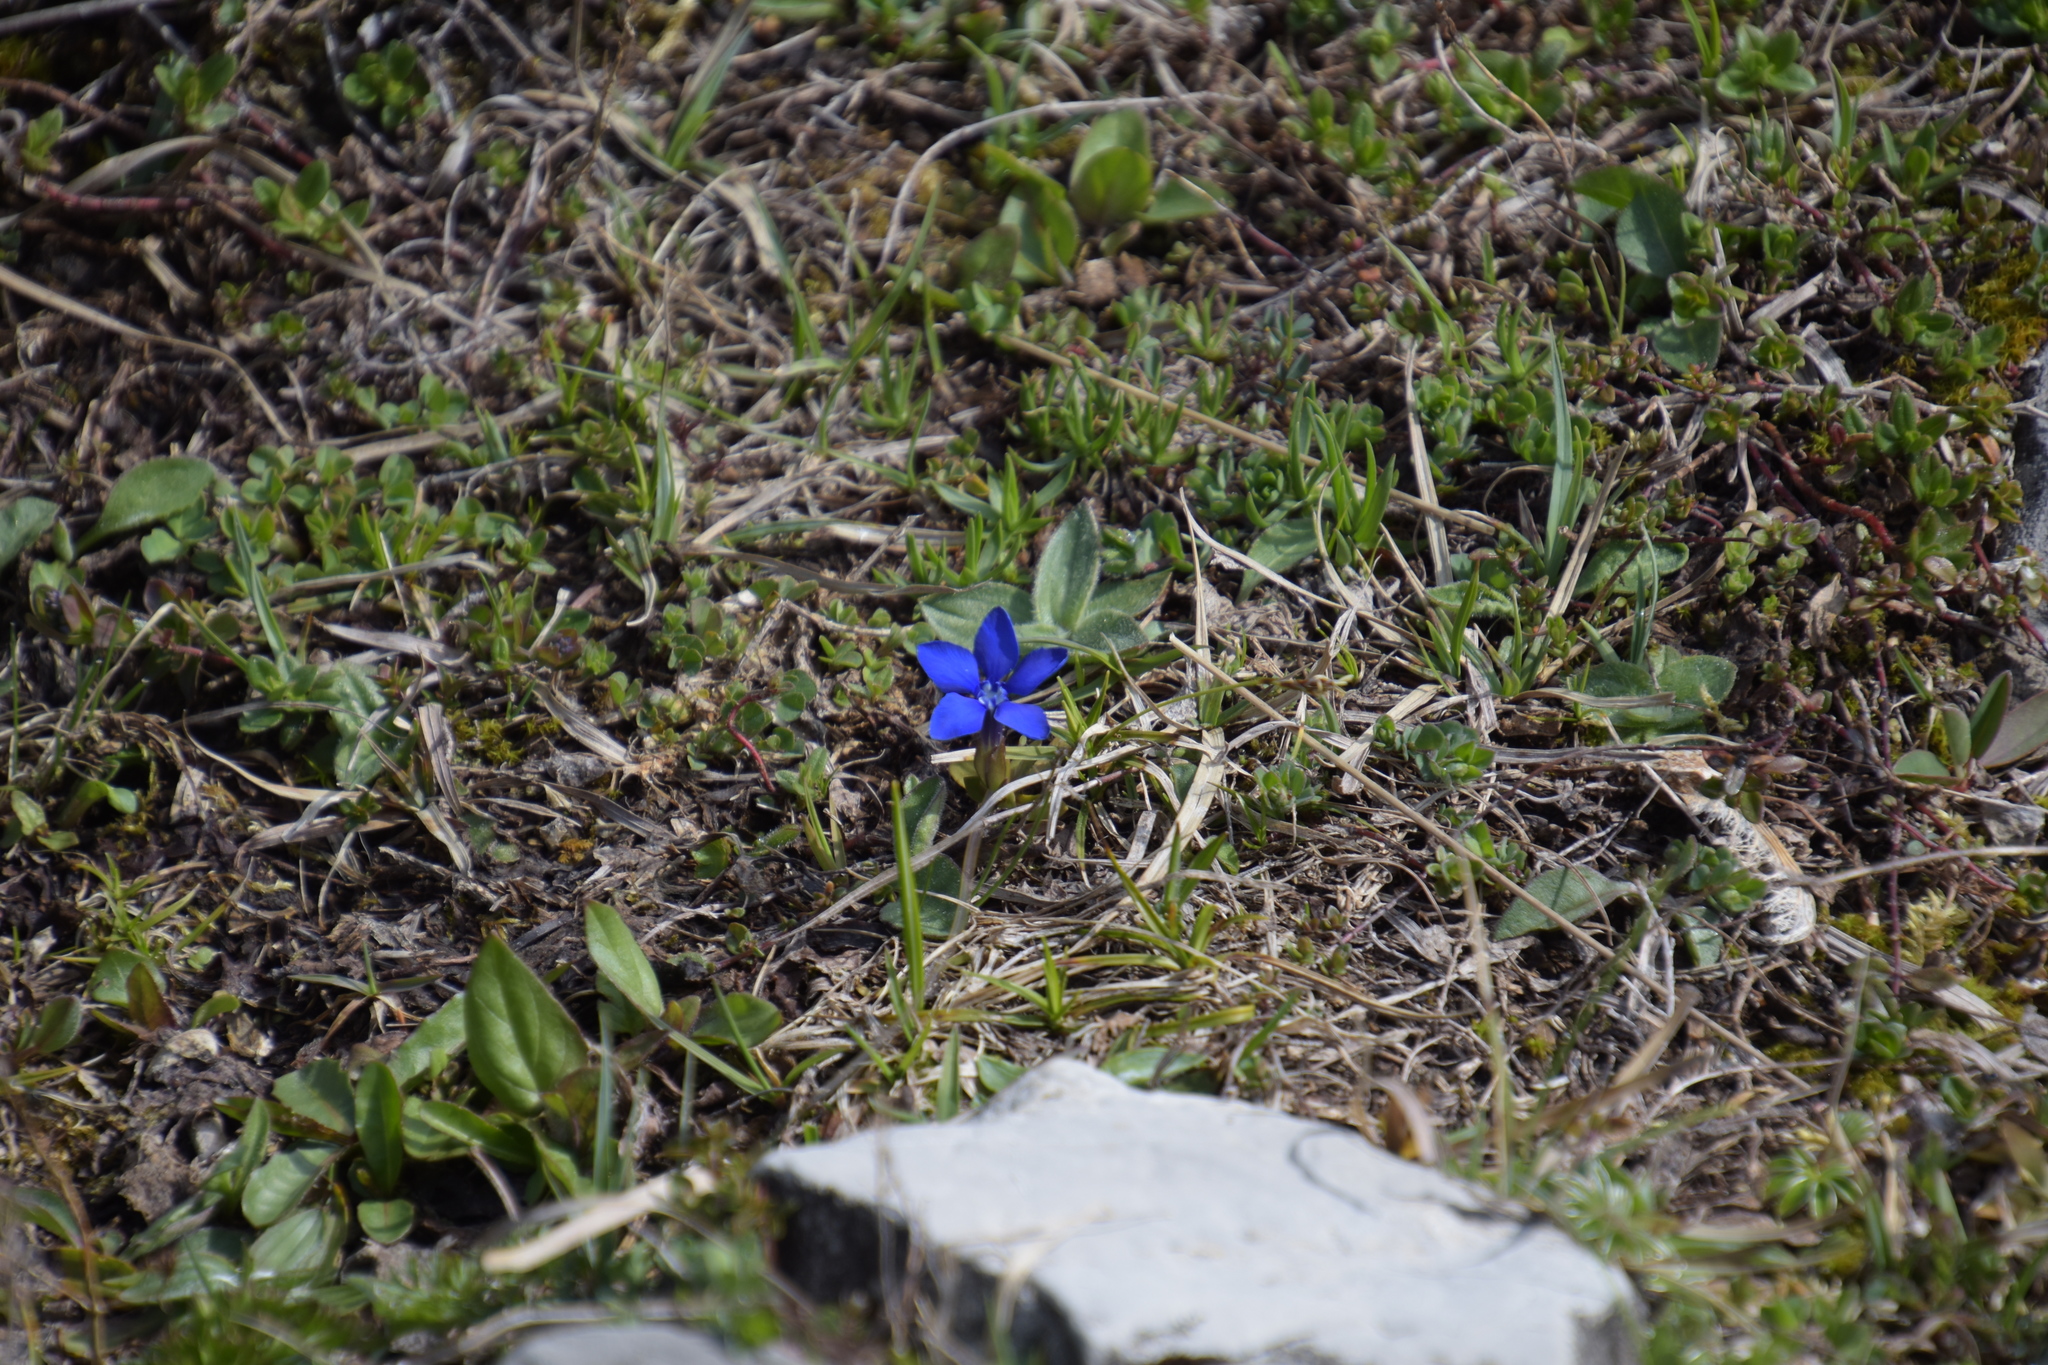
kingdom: Plantae
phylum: Tracheophyta
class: Magnoliopsida
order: Gentianales
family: Gentianaceae
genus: Gentiana
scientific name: Gentiana verna
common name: Spring gentian
